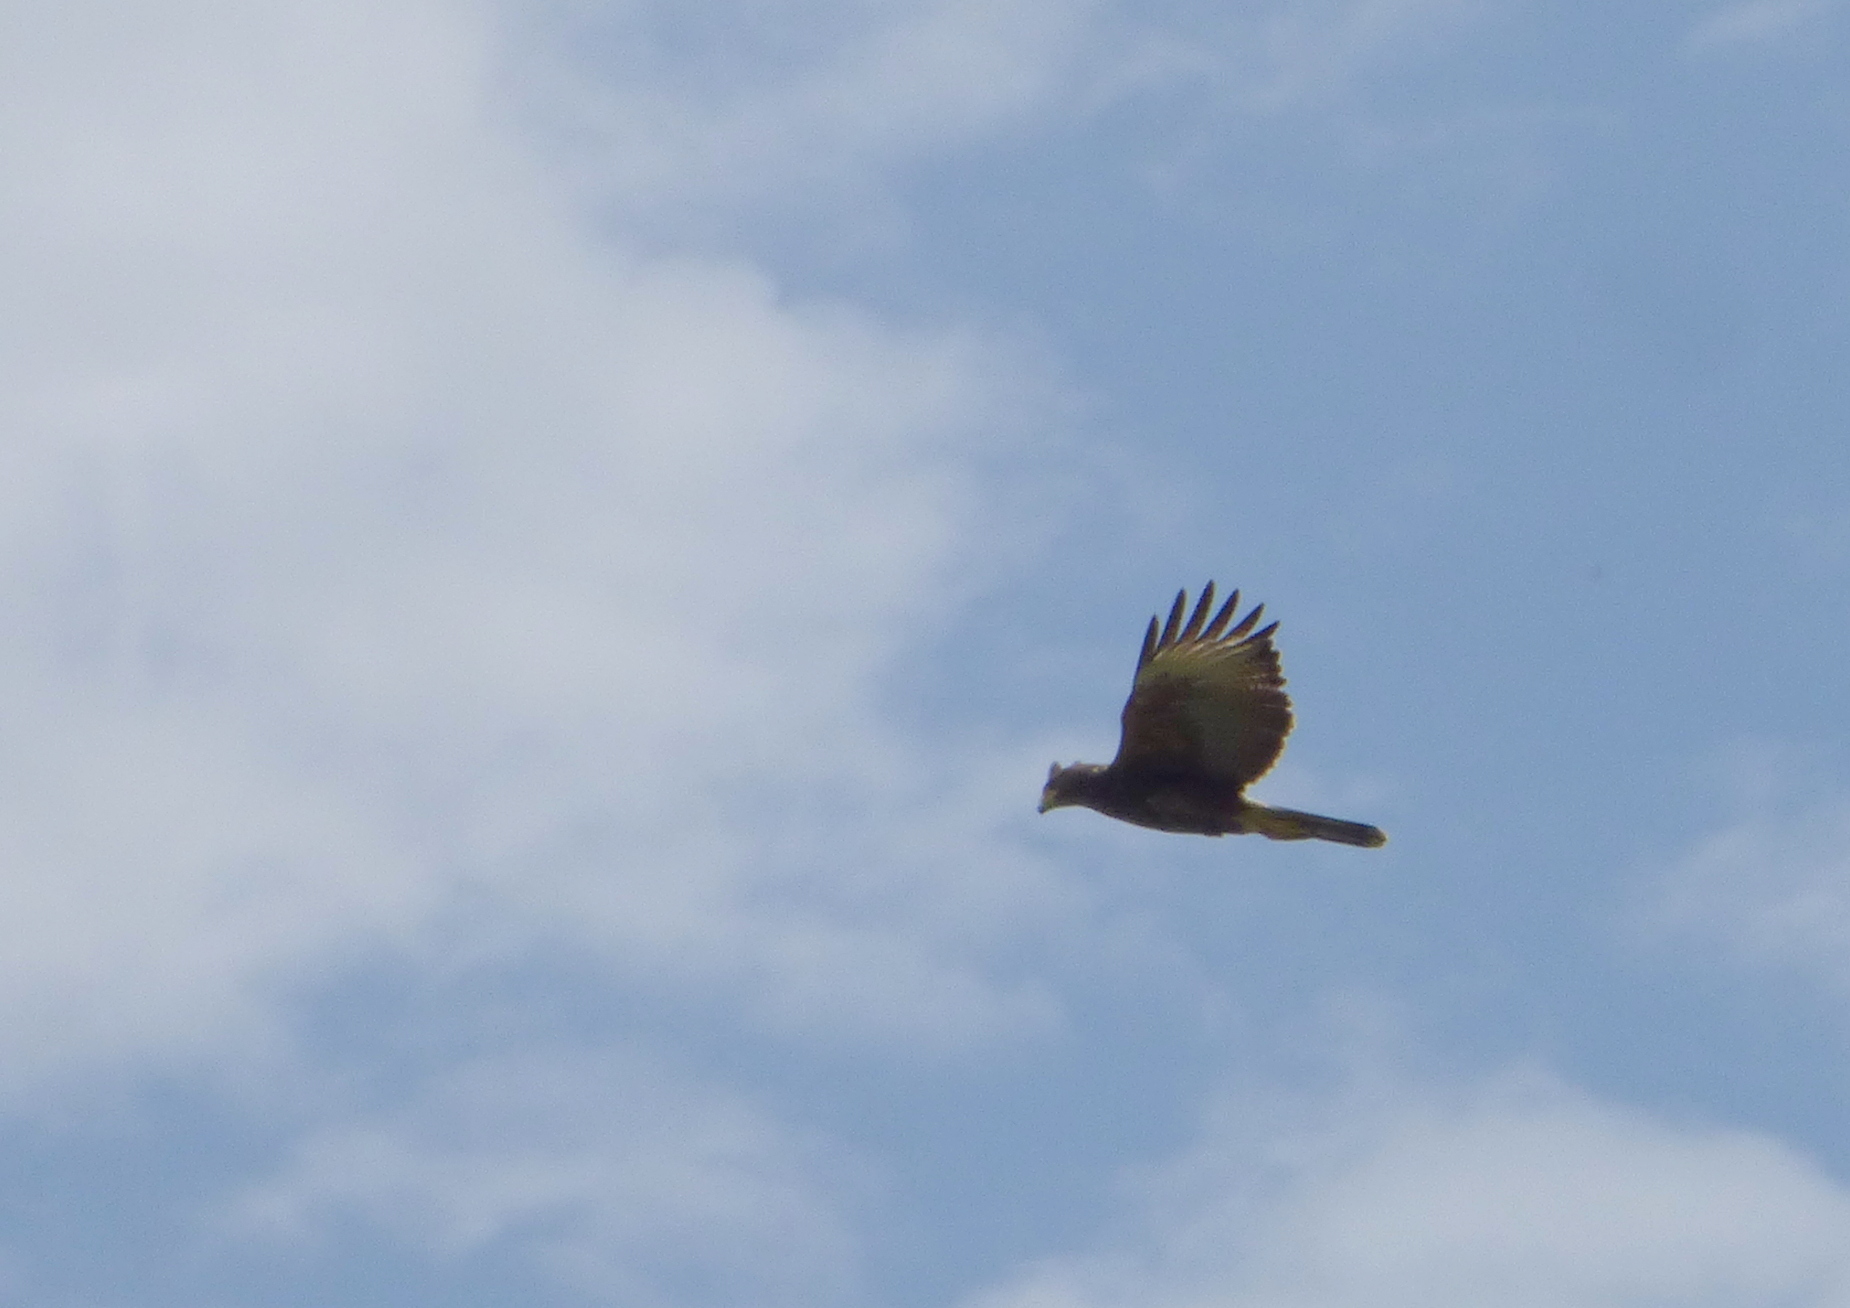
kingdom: Animalia
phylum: Chordata
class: Aves
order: Accipitriformes
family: Accipitridae
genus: Parabuteo
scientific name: Parabuteo unicinctus
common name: Harris's hawk
